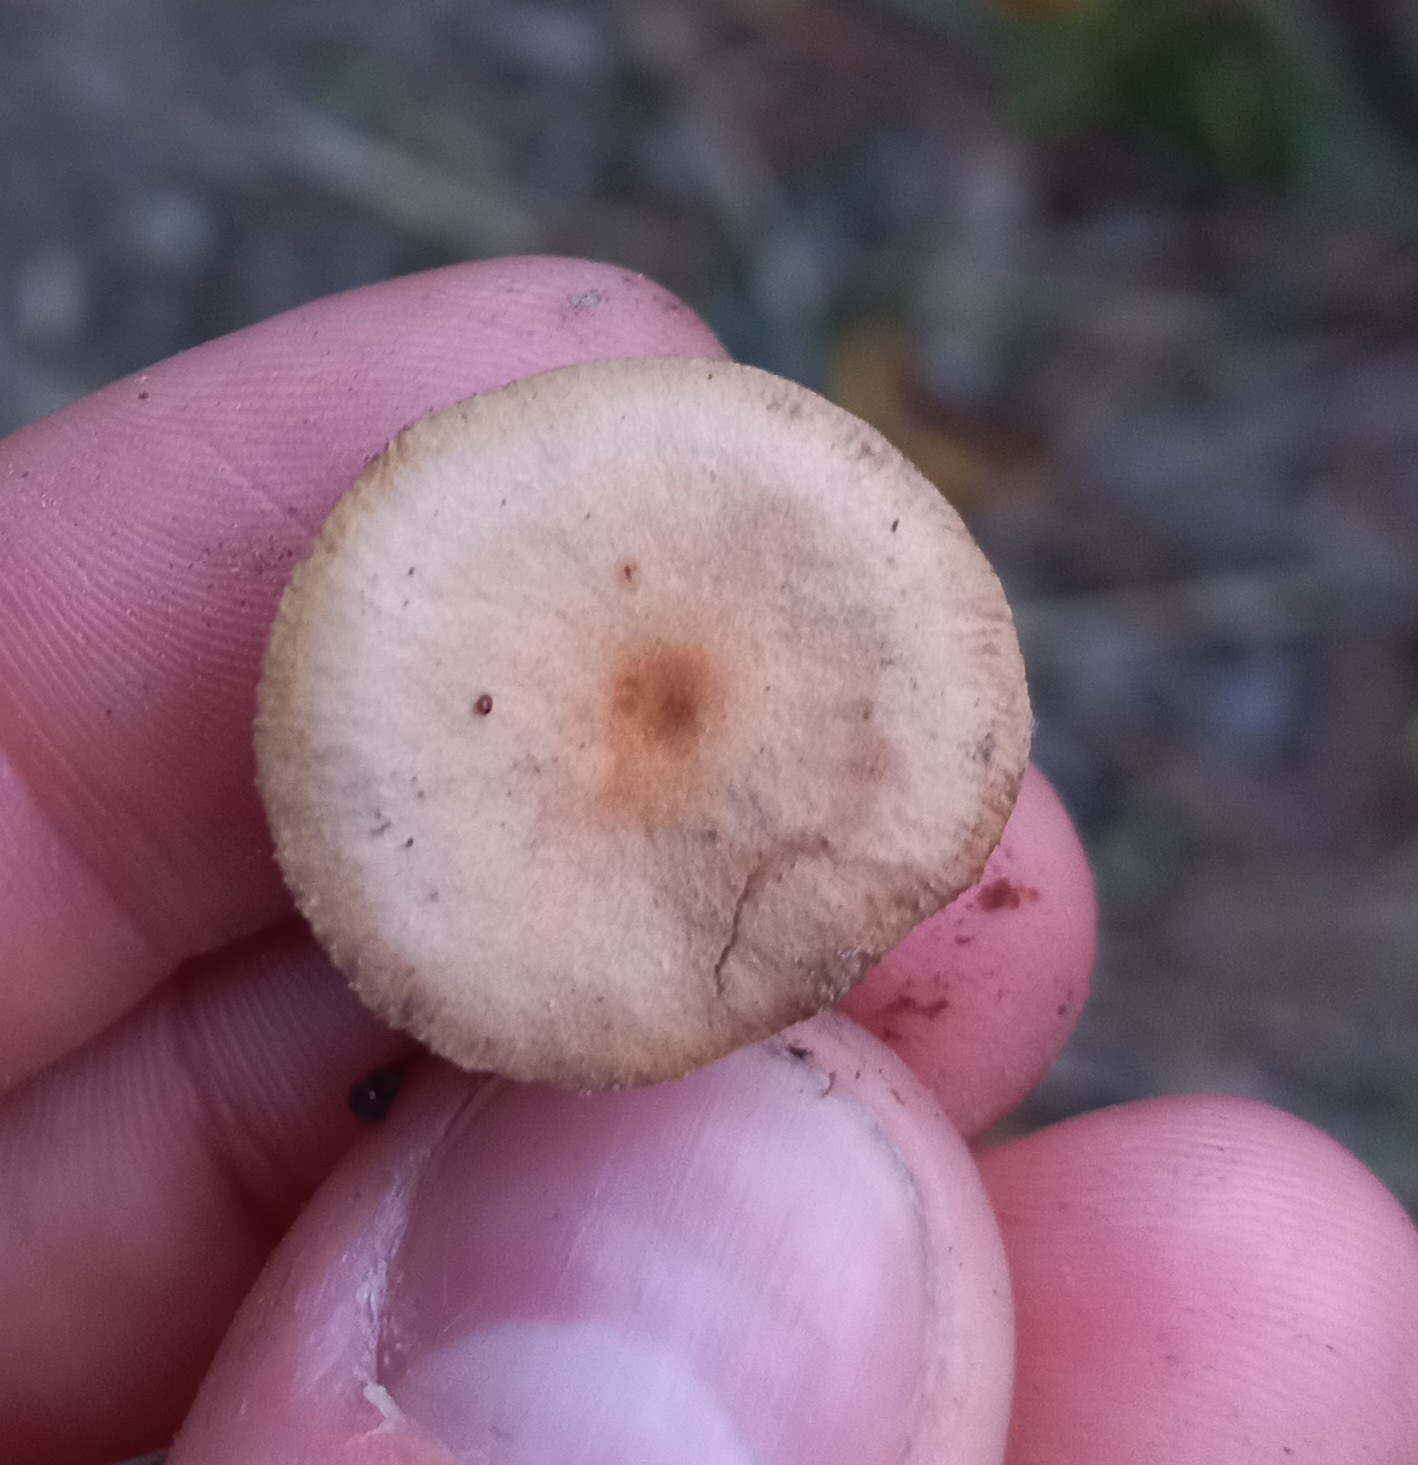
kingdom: Fungi
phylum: Basidiomycota
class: Agaricomycetes
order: Agaricales
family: Tubariaceae
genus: Tubaria
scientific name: Tubaria furfuracea
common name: Scurfy twiglet
